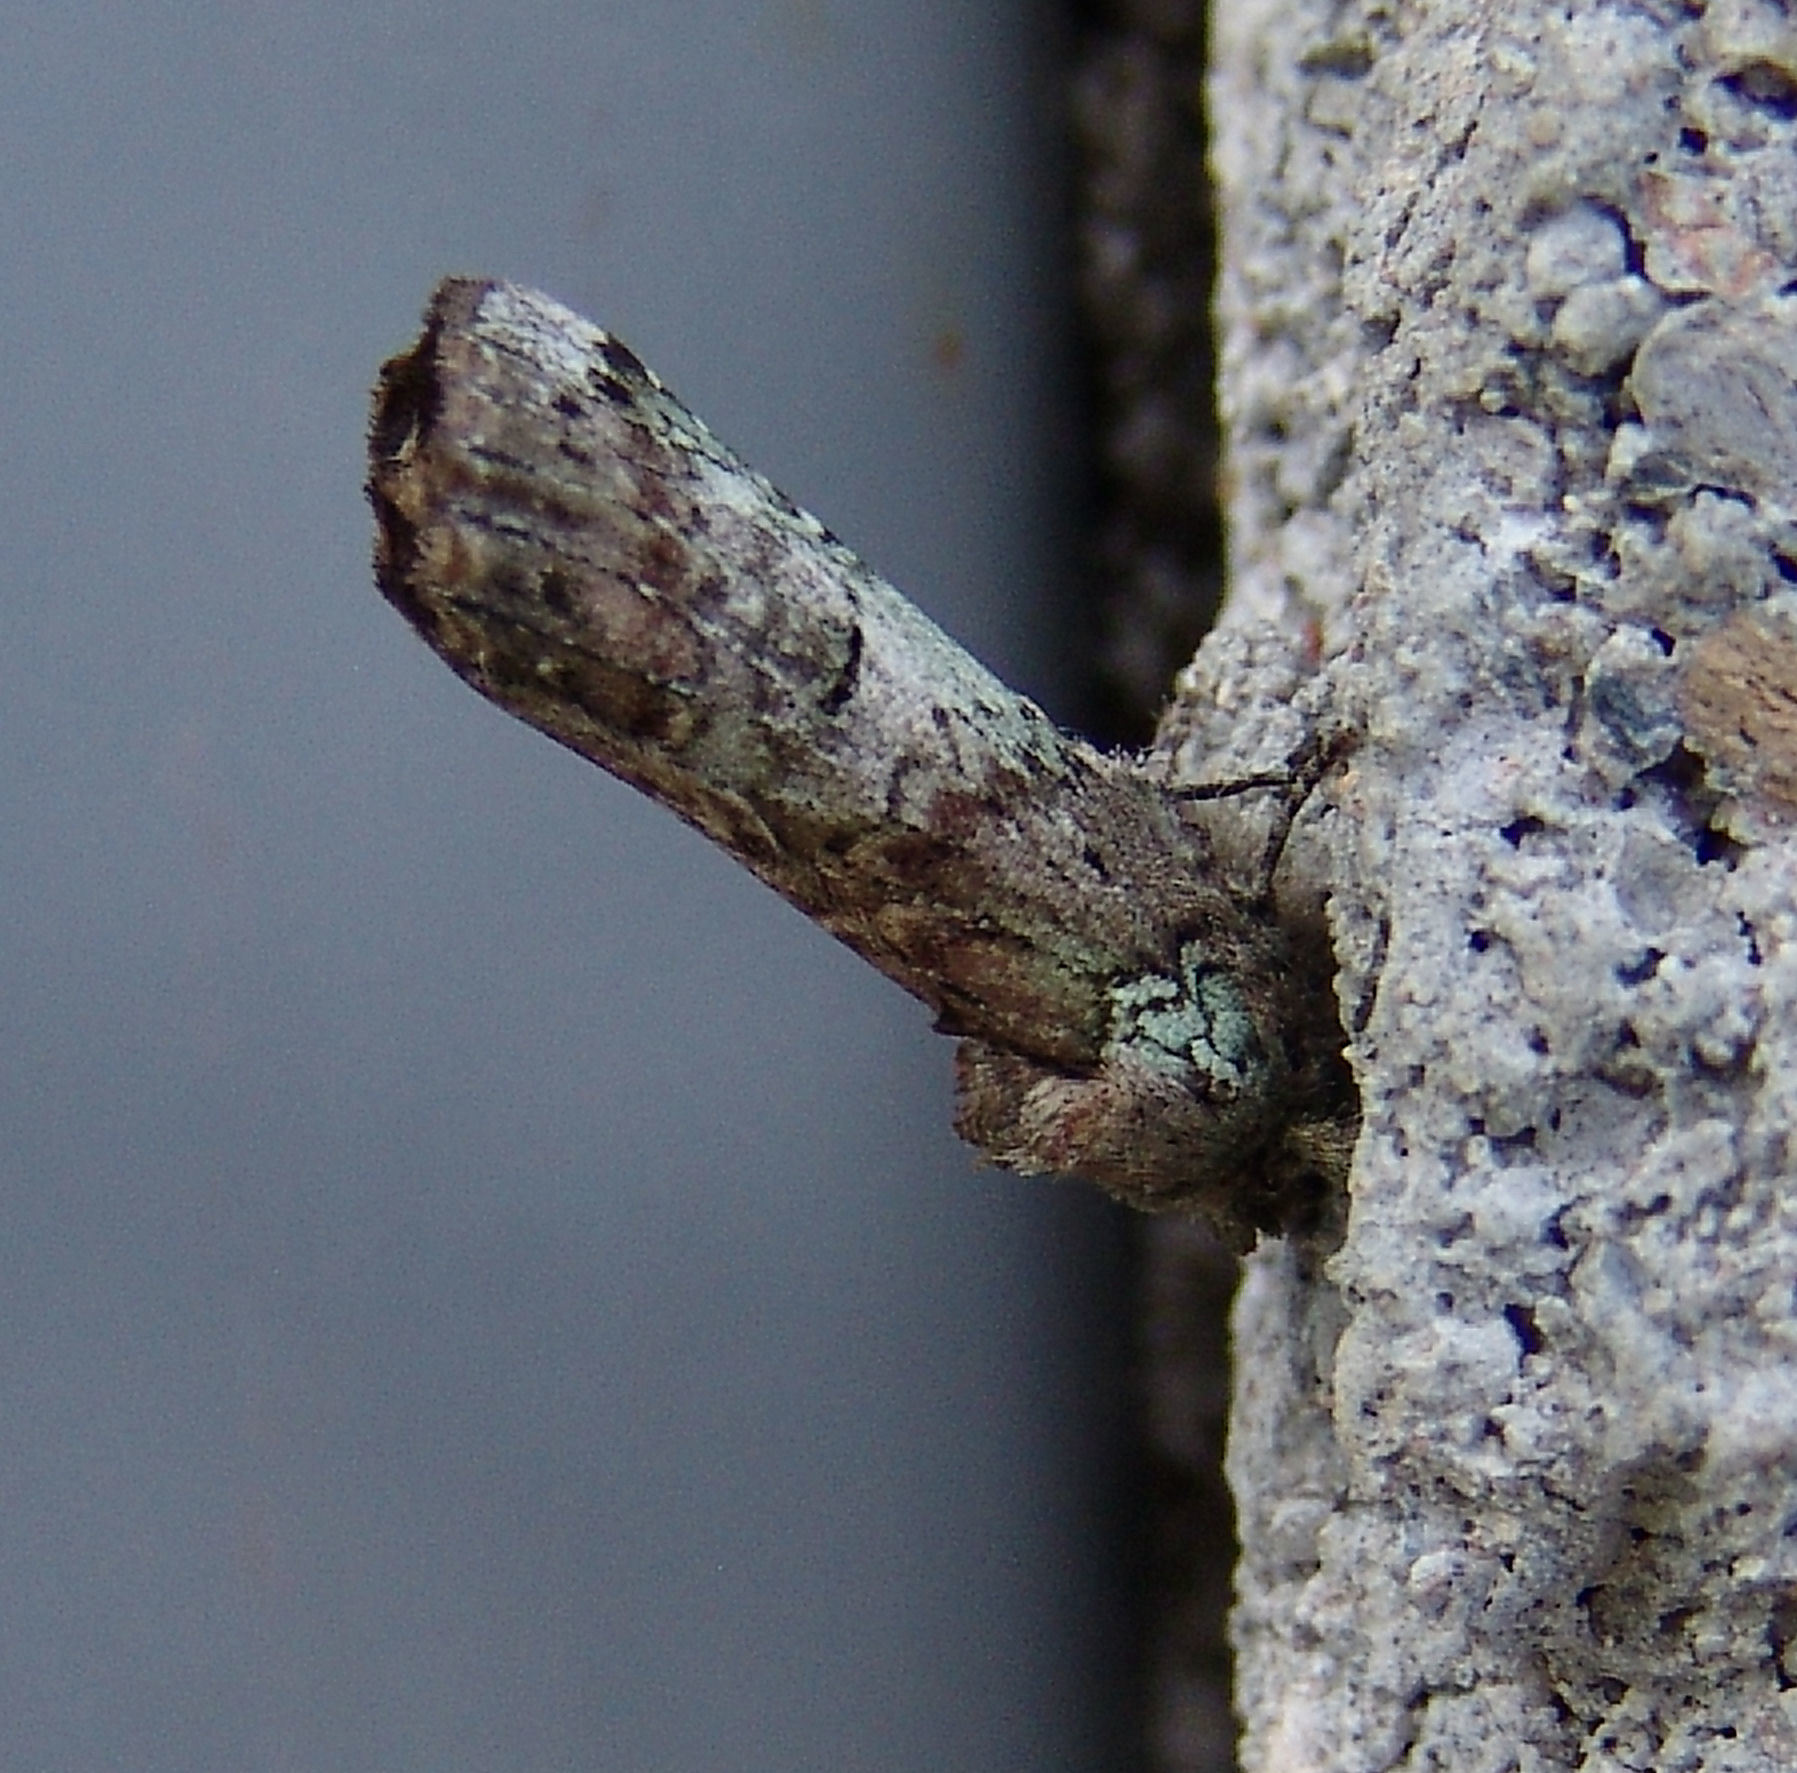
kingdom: Animalia
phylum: Arthropoda
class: Insecta
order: Lepidoptera
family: Notodontidae
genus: Schizura
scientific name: Schizura
